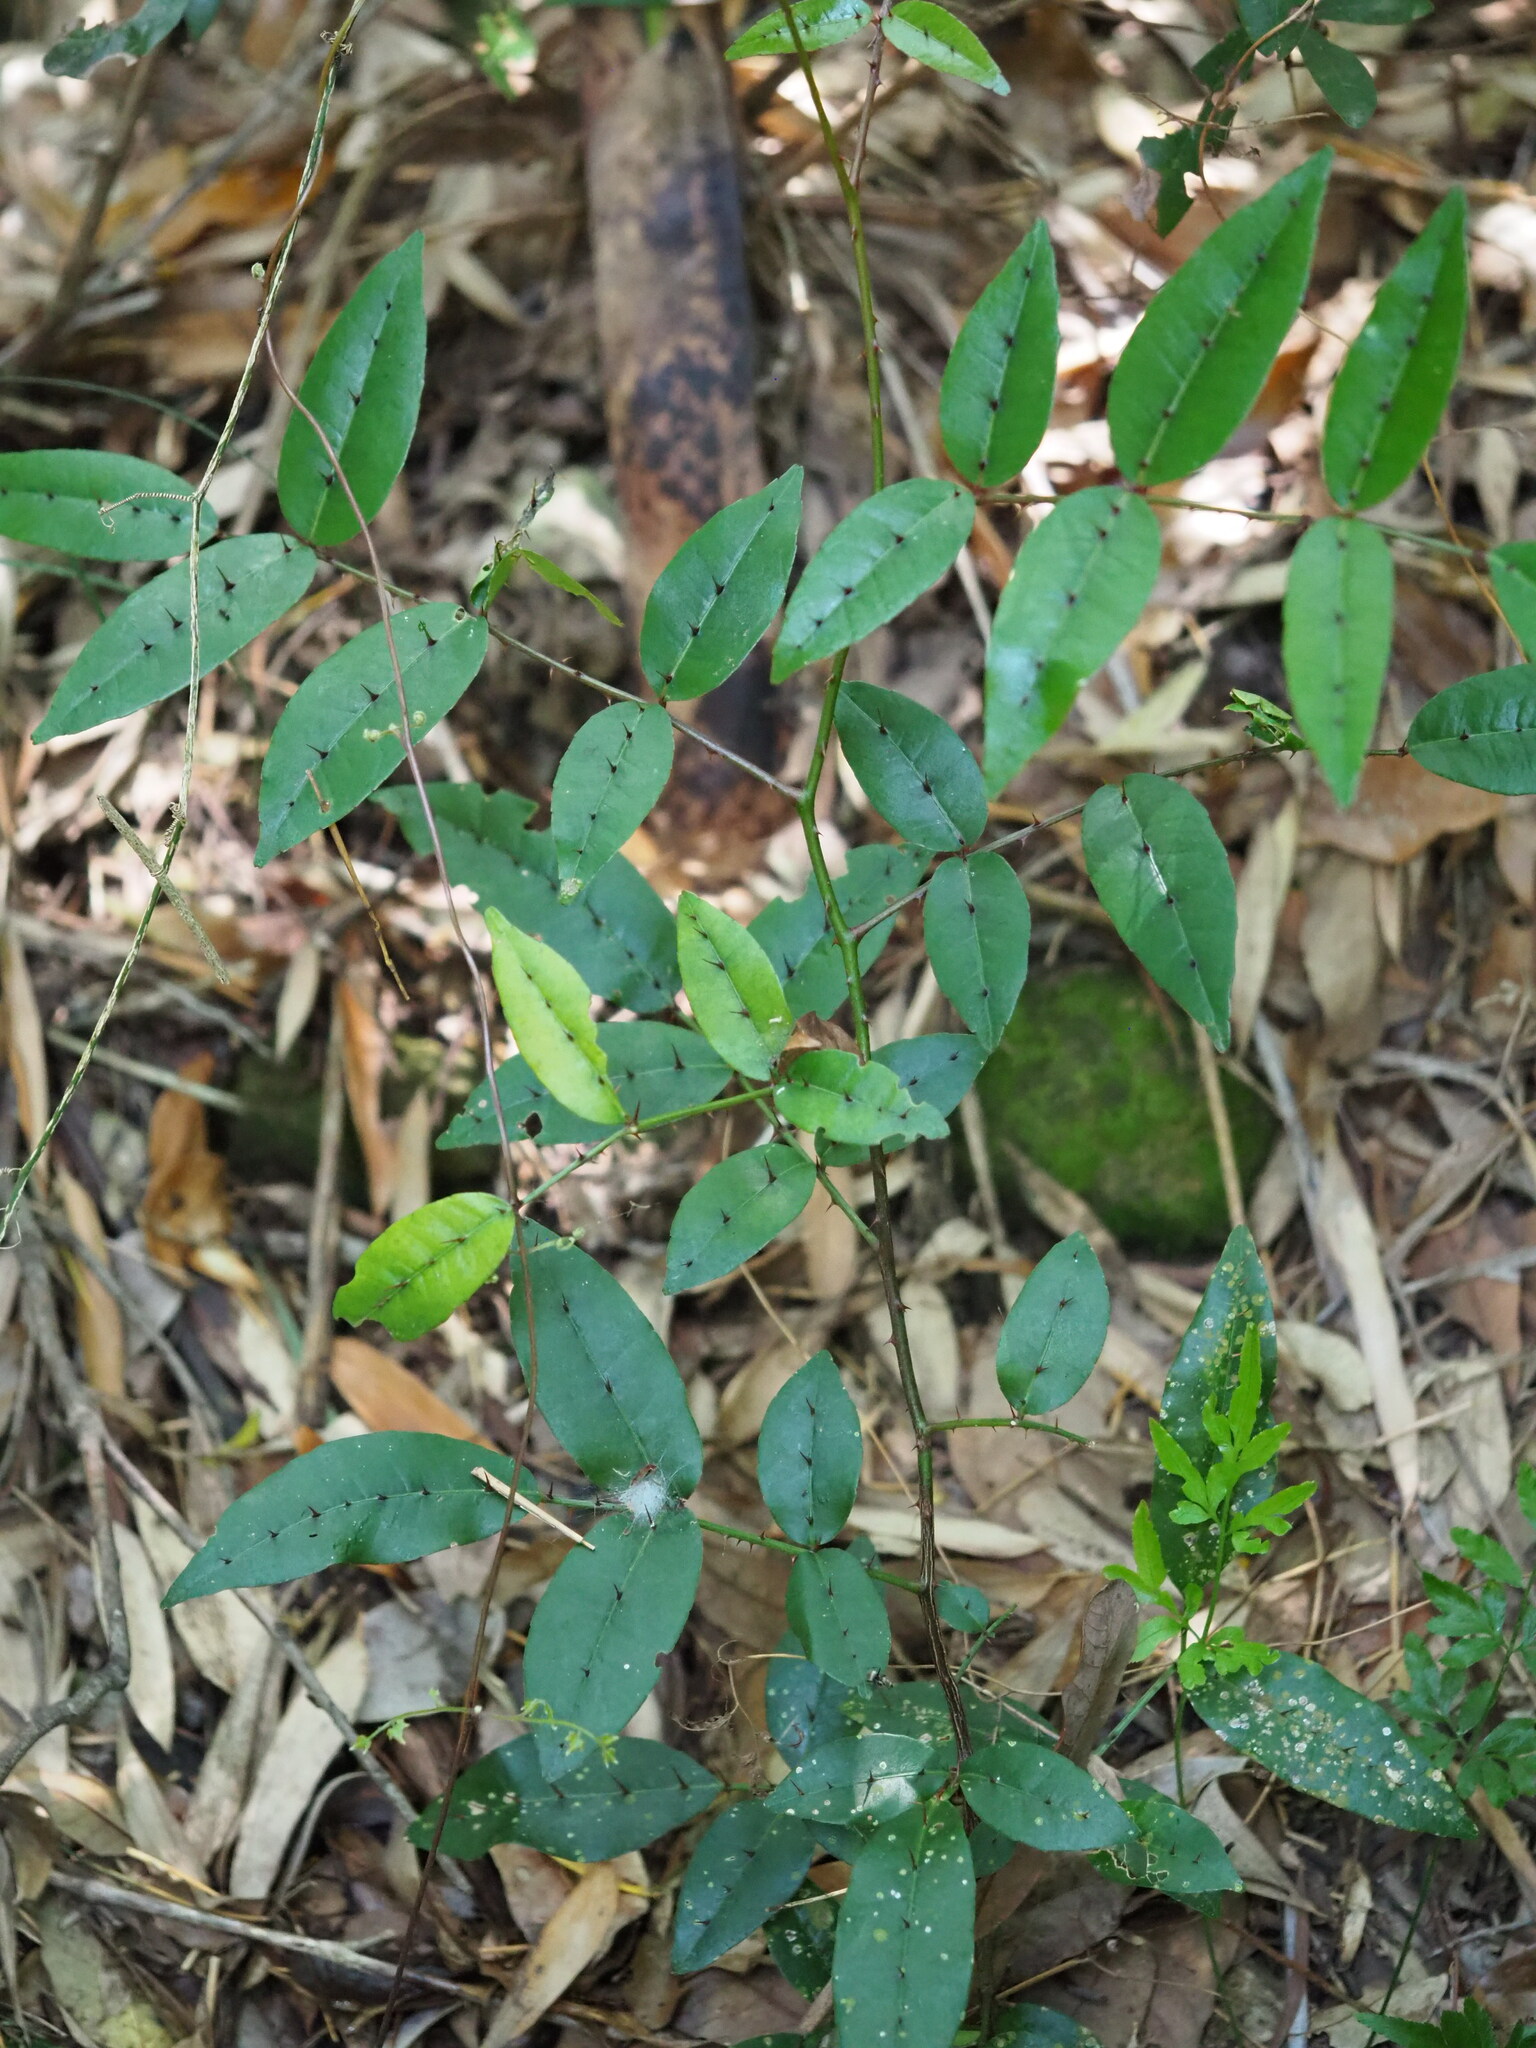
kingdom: Plantae
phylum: Tracheophyta
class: Magnoliopsida
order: Sapindales
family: Rutaceae
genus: Zanthoxylum
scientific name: Zanthoxylum nitidum
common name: Shiny-leaf prickly-ash
